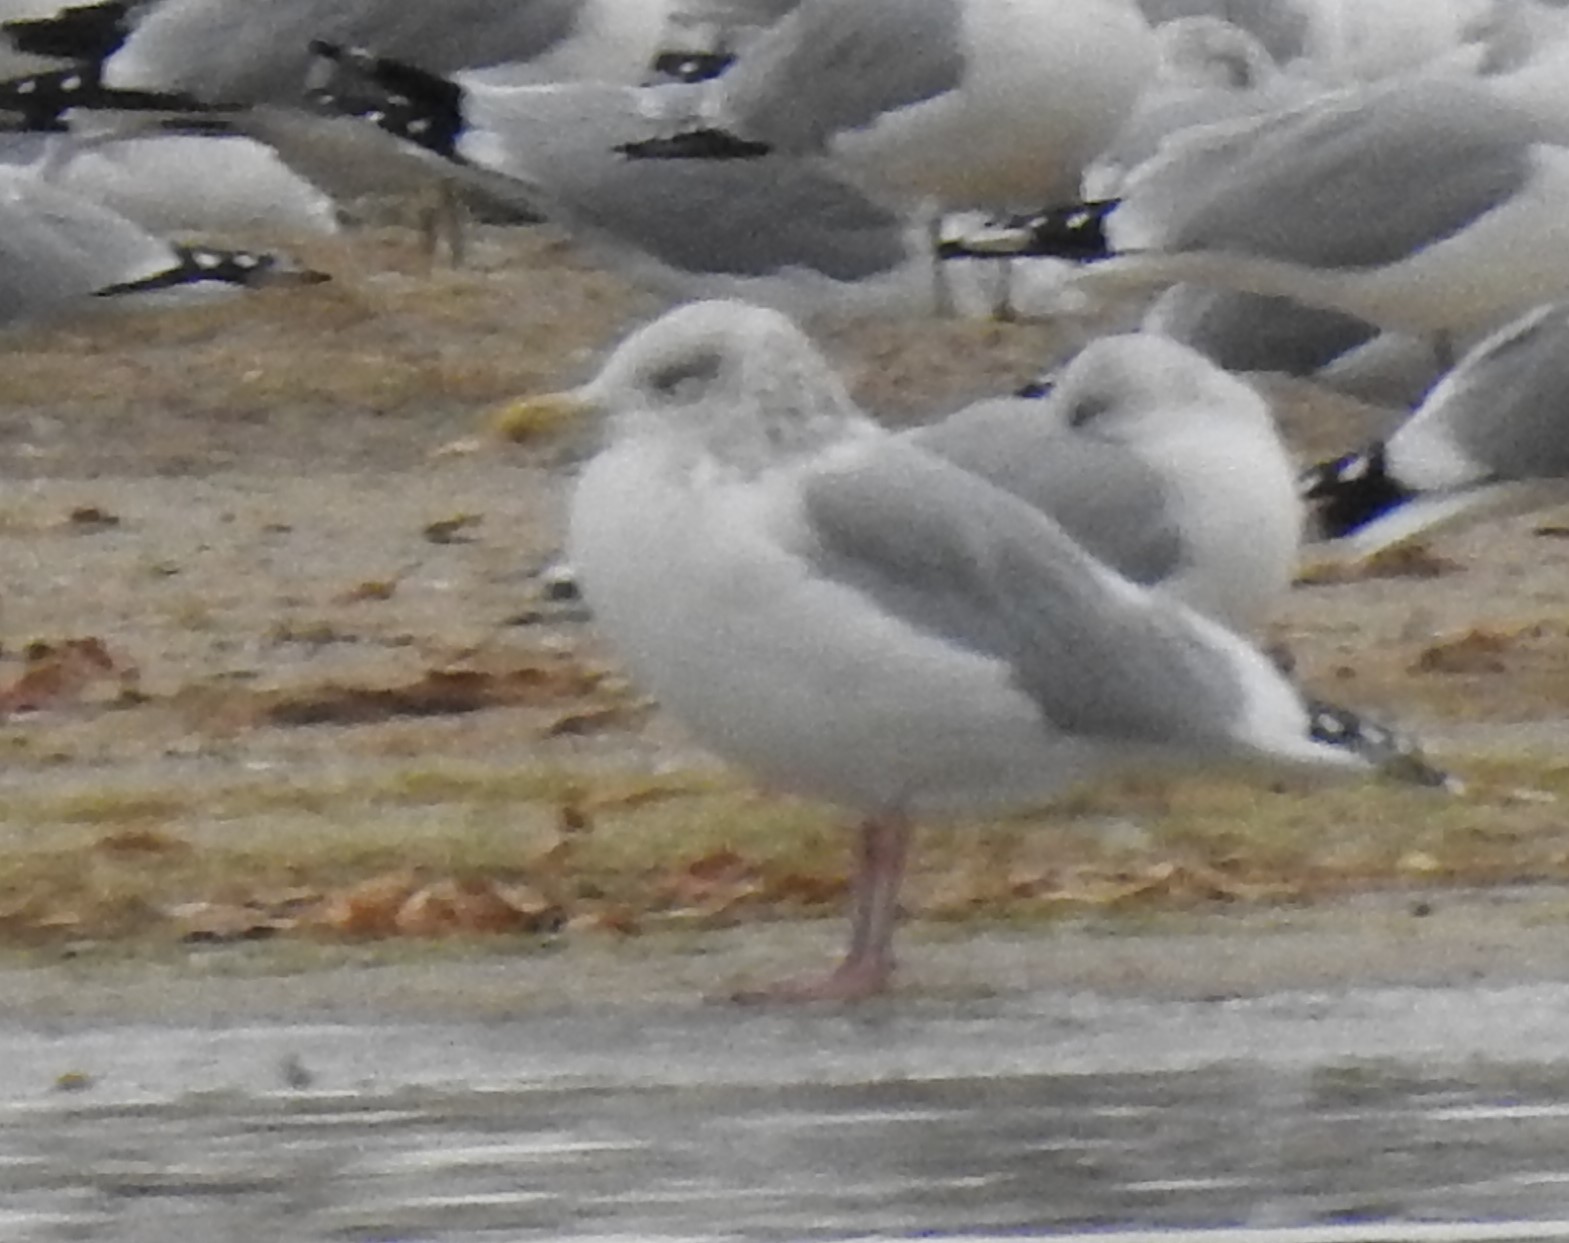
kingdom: Animalia
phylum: Chordata
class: Aves
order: Charadriiformes
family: Laridae
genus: Larus
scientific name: Larus argentatus
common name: Herring gull
